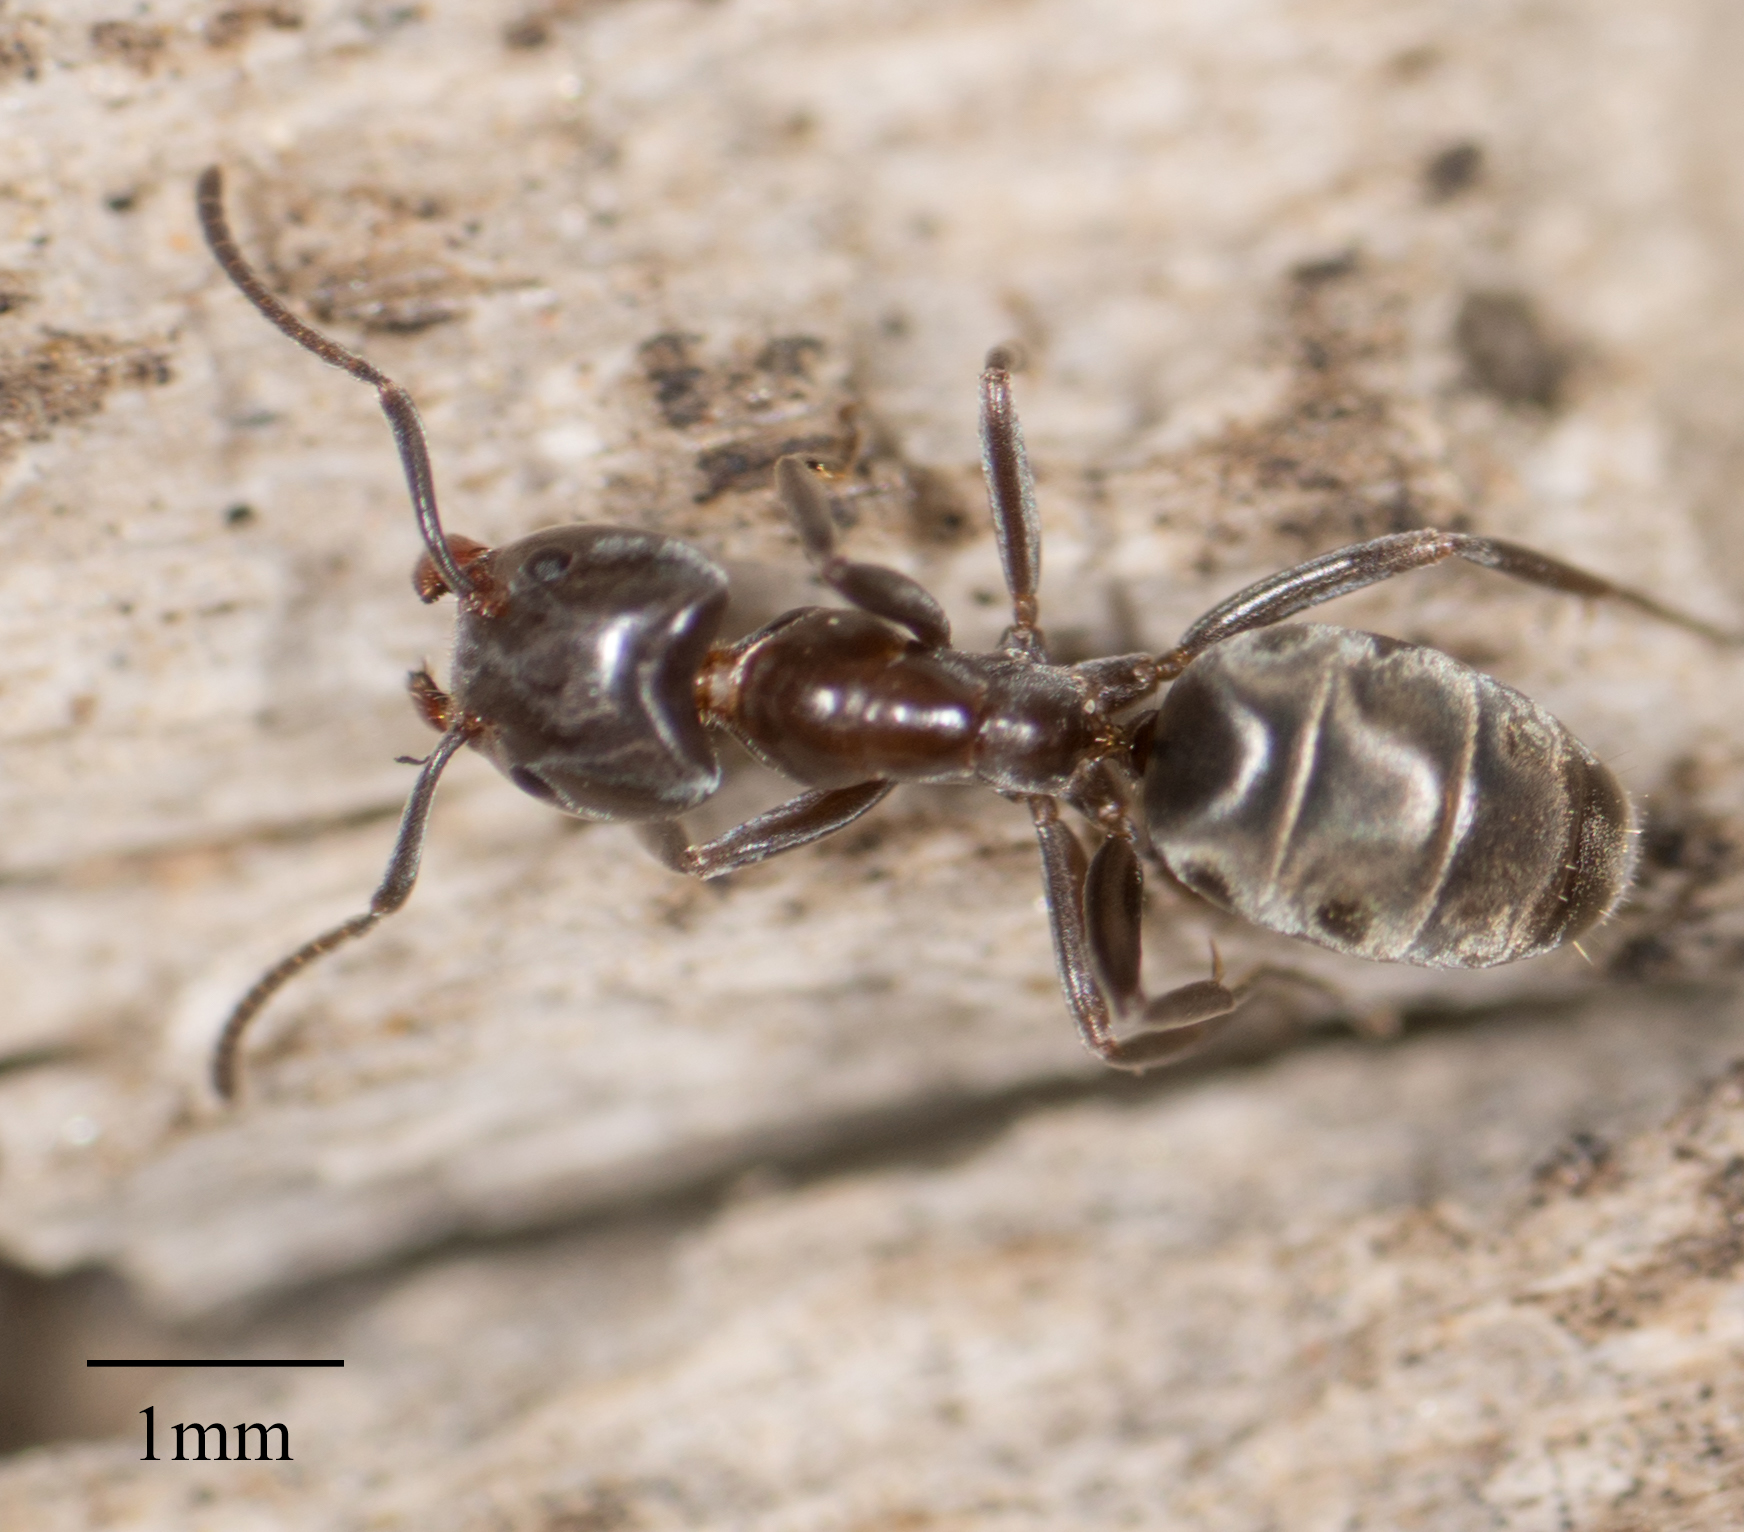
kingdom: Animalia
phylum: Arthropoda
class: Insecta
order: Hymenoptera
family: Formicidae
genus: Liometopum
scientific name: Liometopum luctuosum
